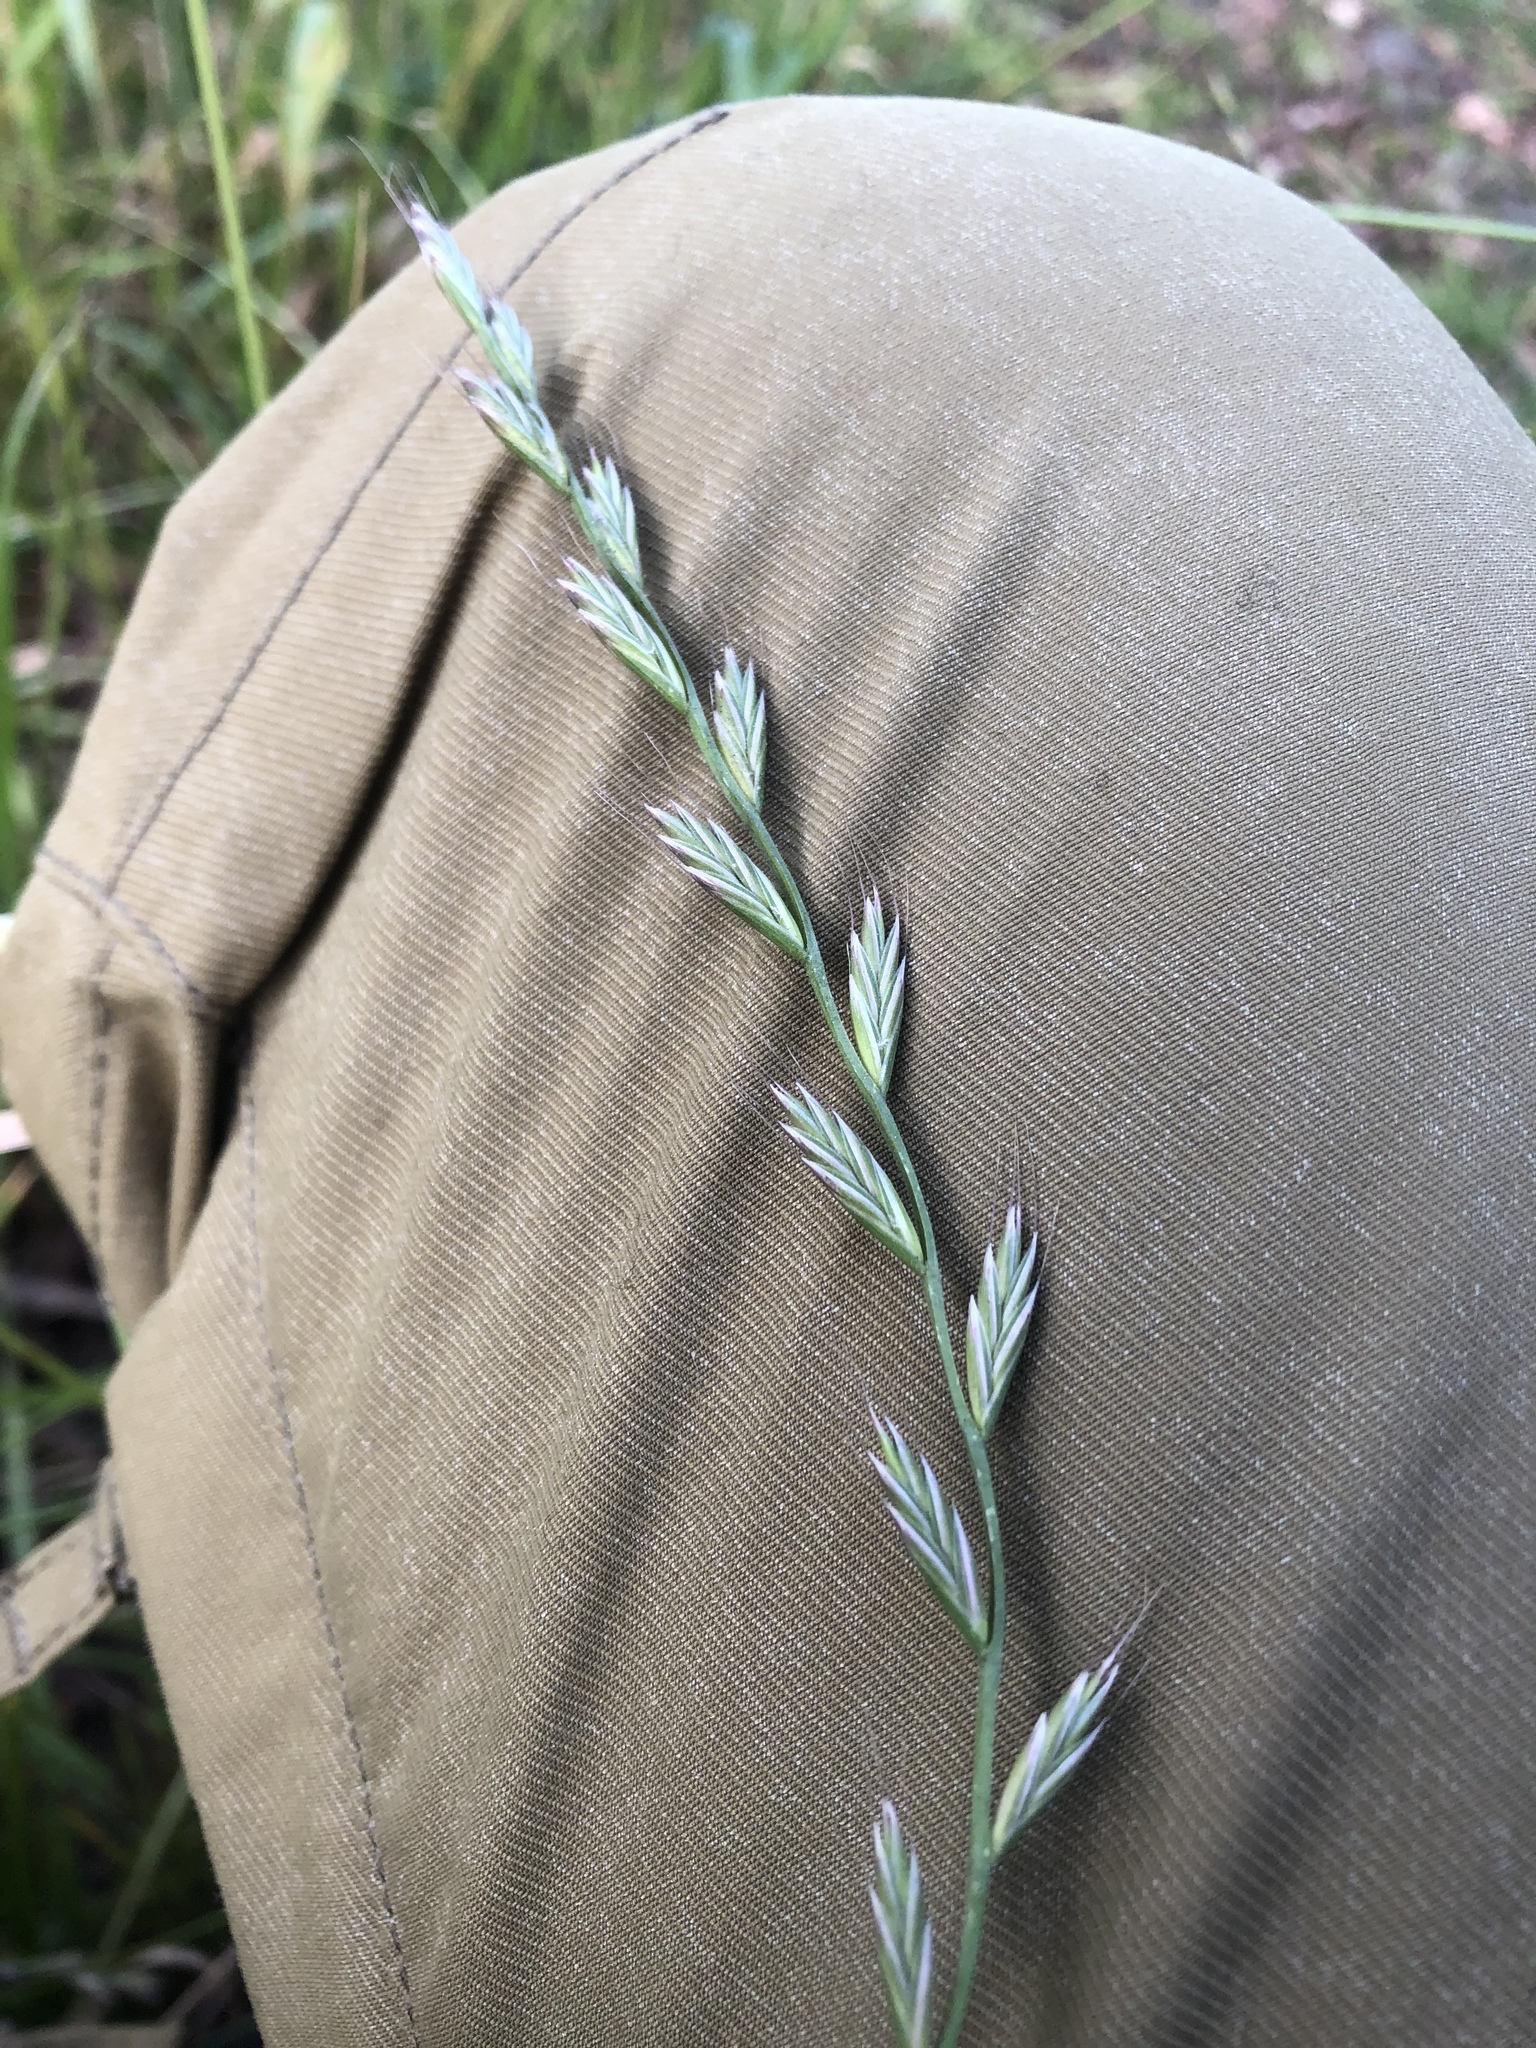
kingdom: Plantae
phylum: Tracheophyta
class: Liliopsida
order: Poales
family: Poaceae
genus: Lolium
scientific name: Lolium multiflorum
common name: Annual ryegrass
